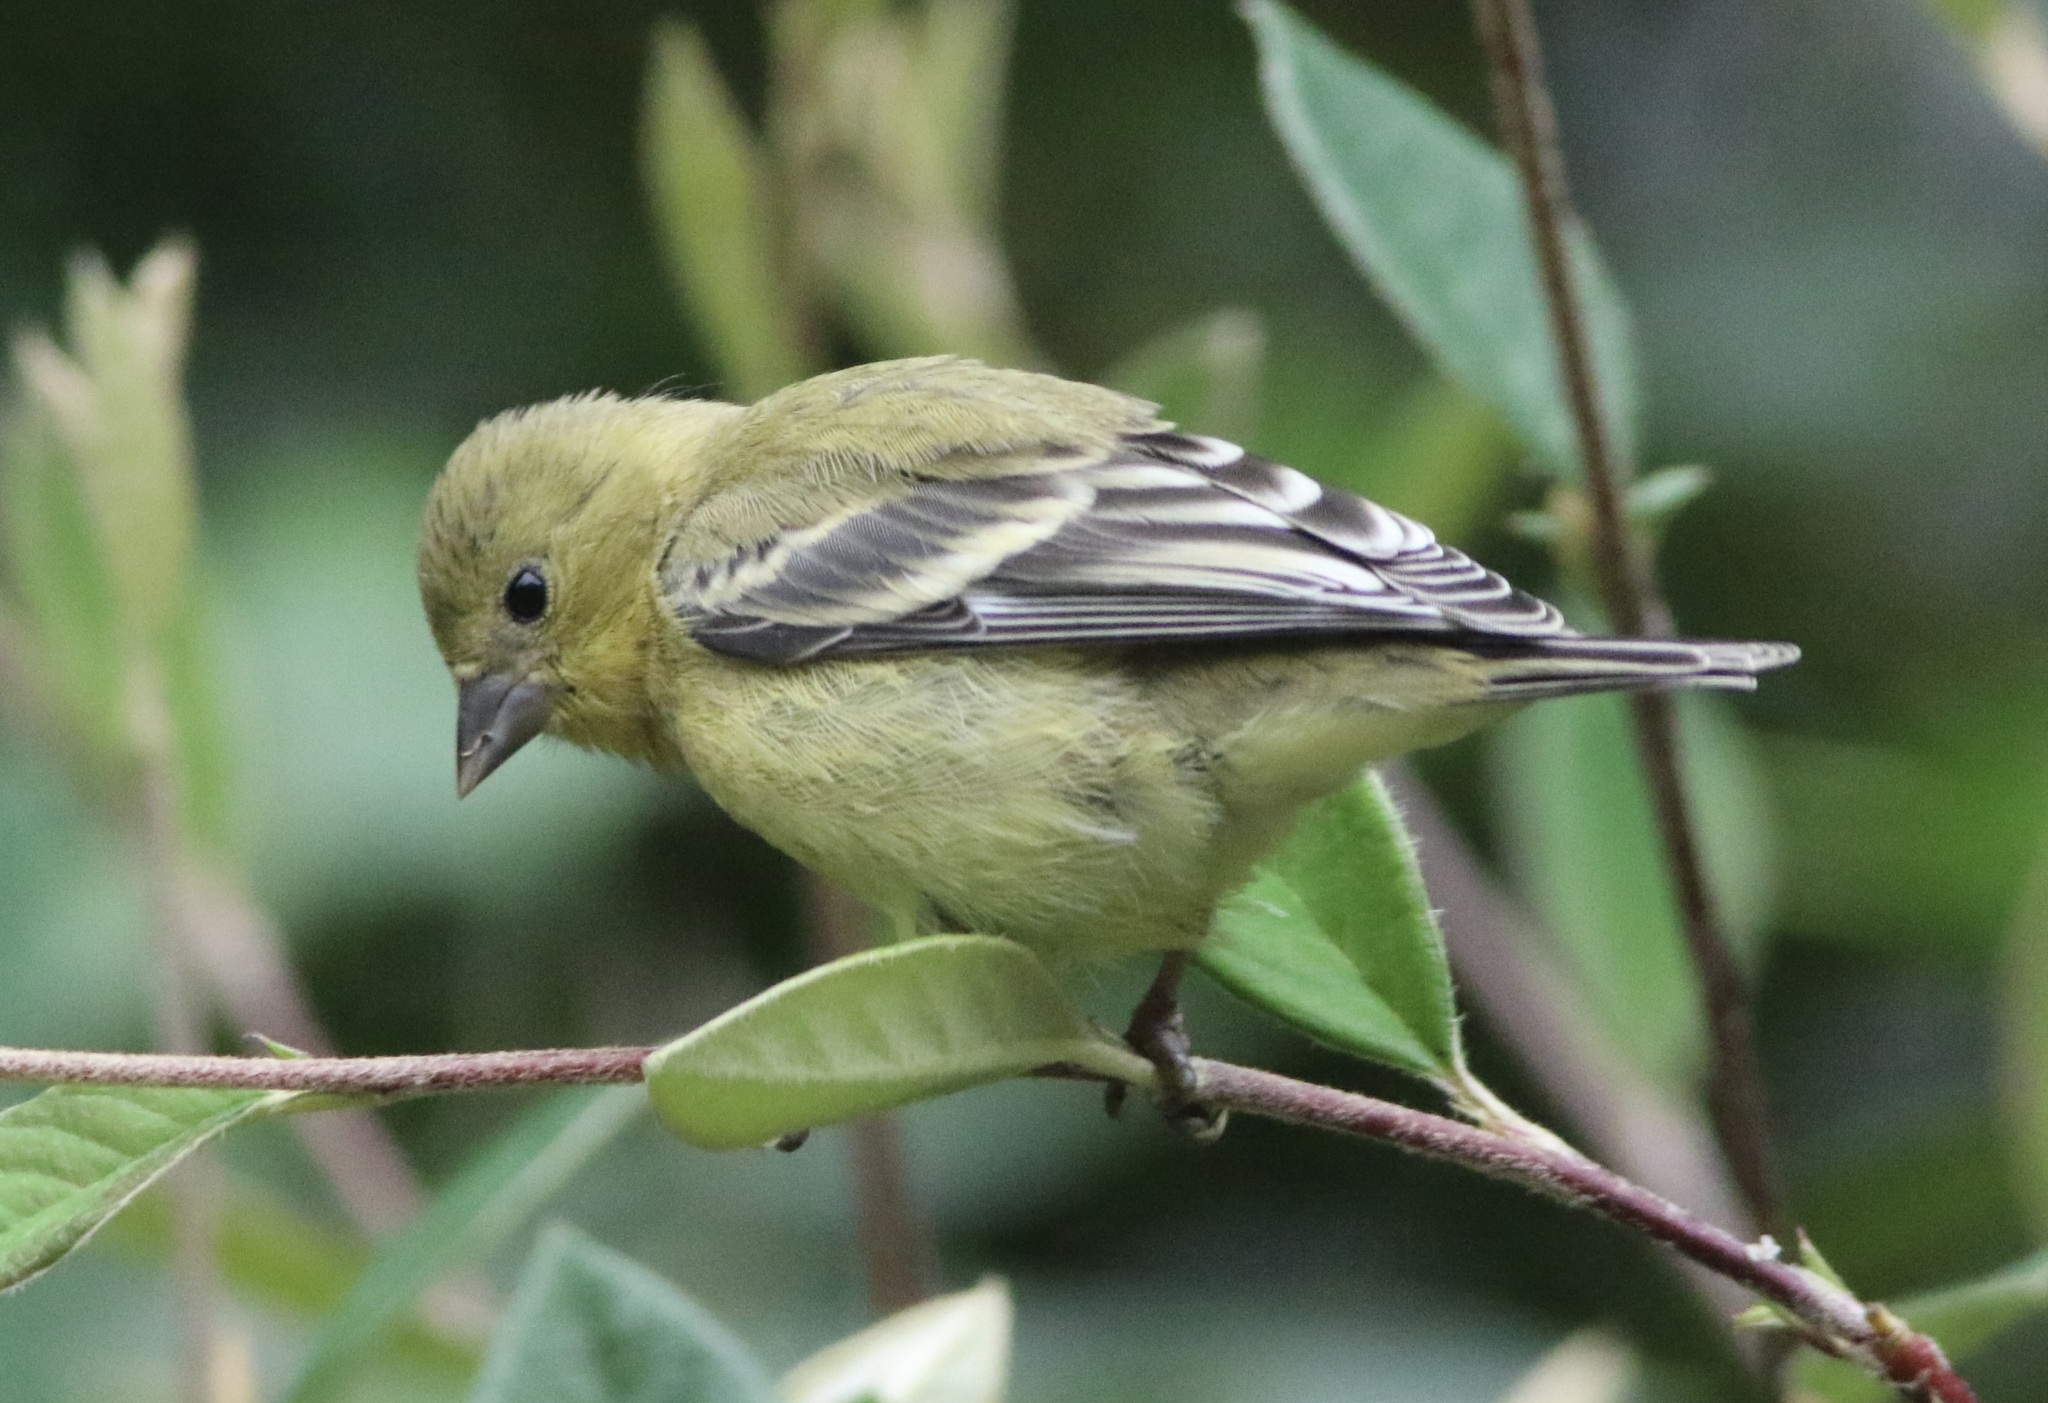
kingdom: Animalia
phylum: Chordata
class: Aves
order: Passeriformes
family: Fringillidae
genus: Spinus
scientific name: Spinus psaltria
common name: Lesser goldfinch
